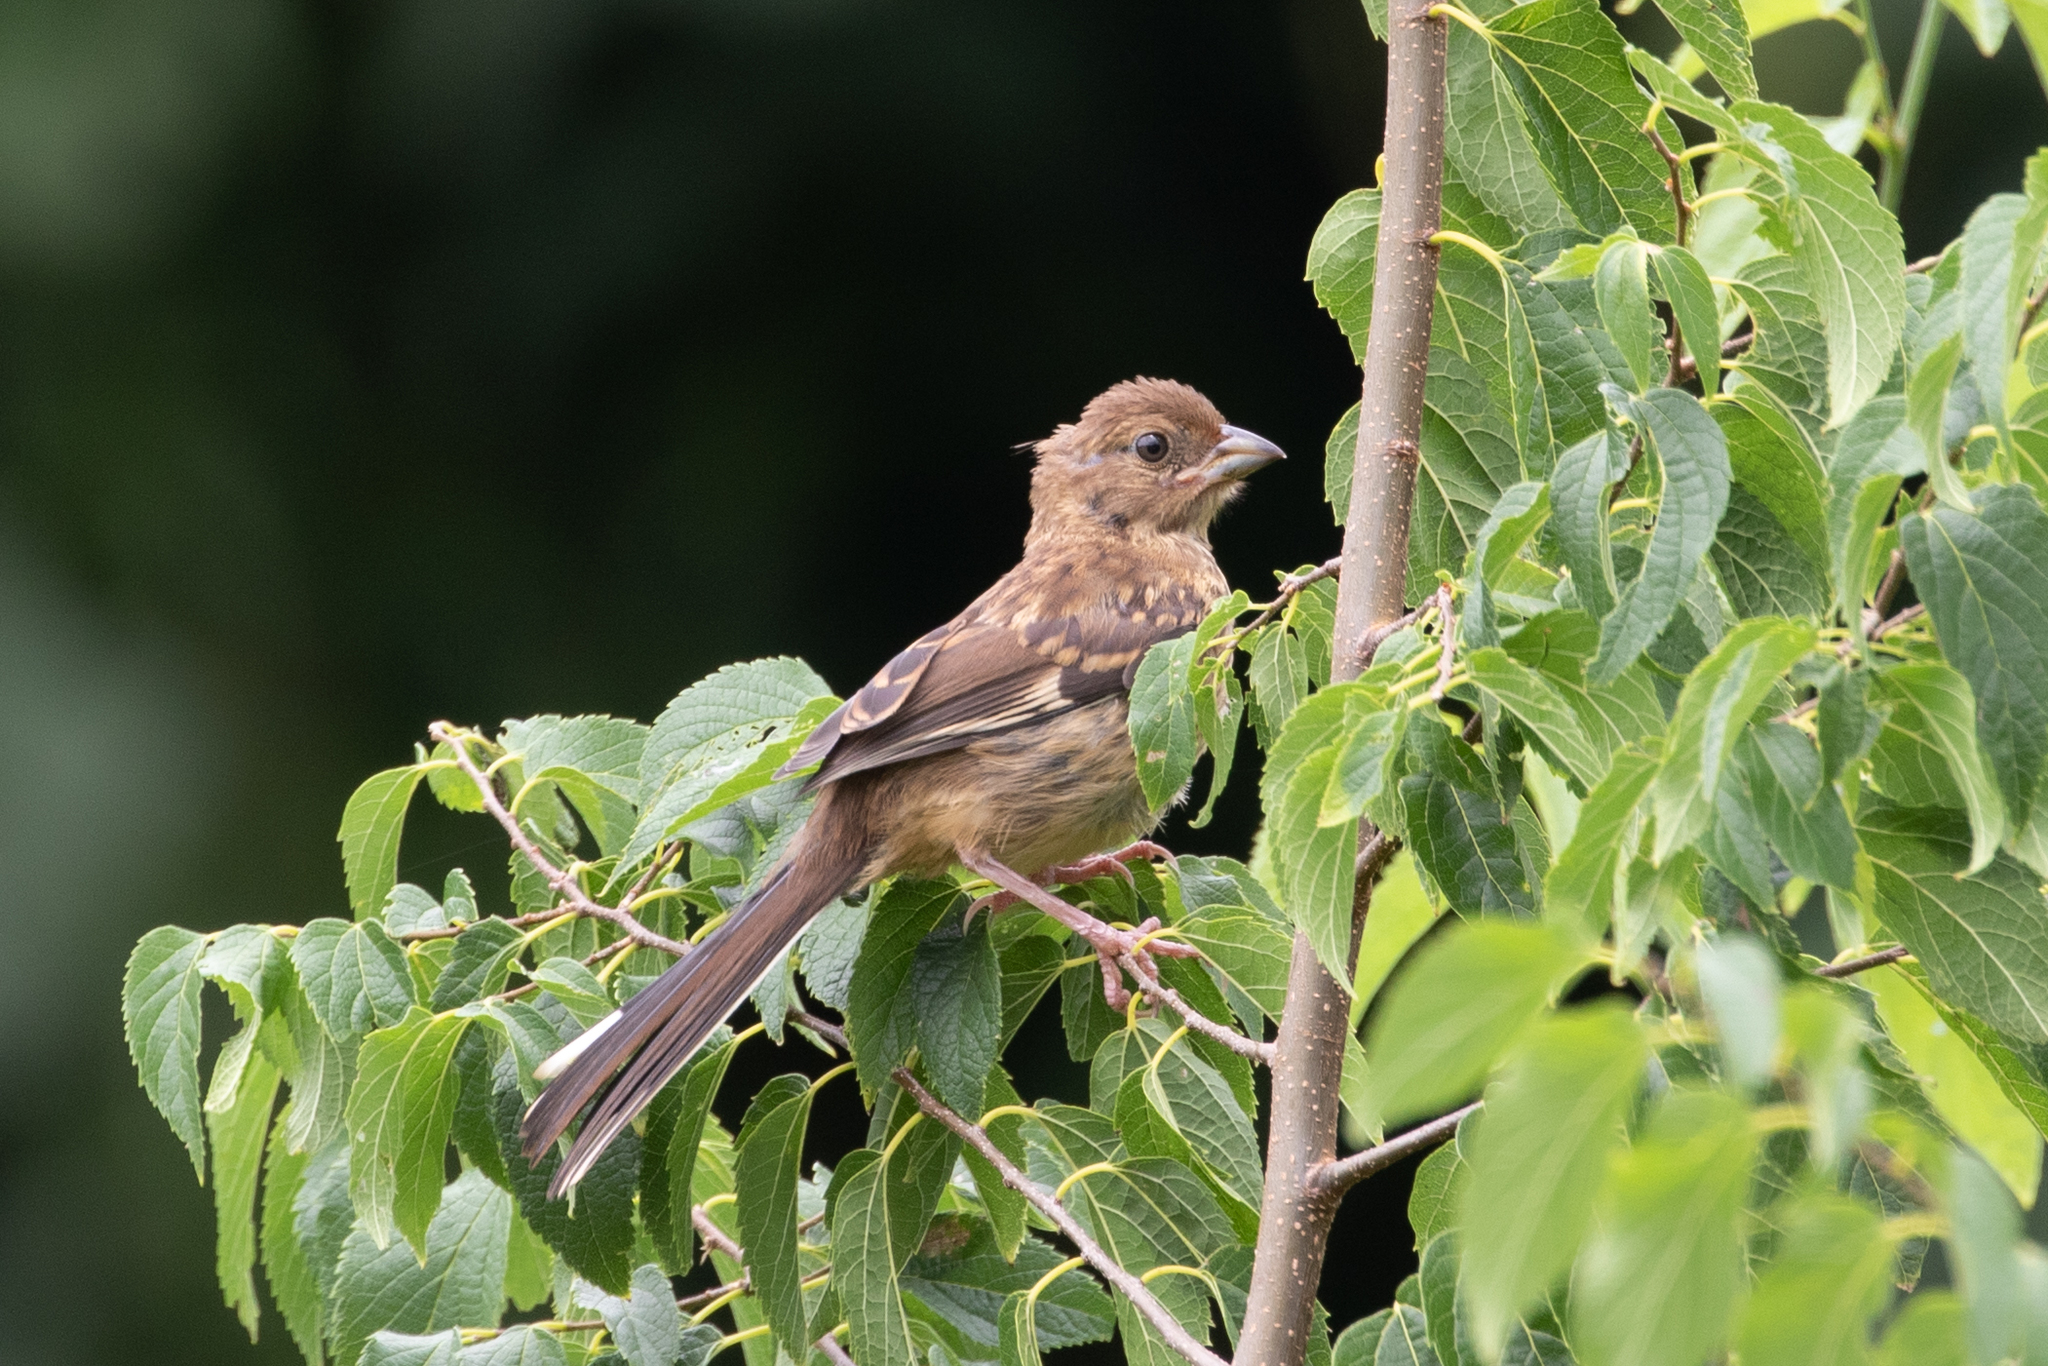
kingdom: Animalia
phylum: Chordata
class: Aves
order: Passeriformes
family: Passerellidae
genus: Pipilo
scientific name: Pipilo erythrophthalmus
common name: Eastern towhee
